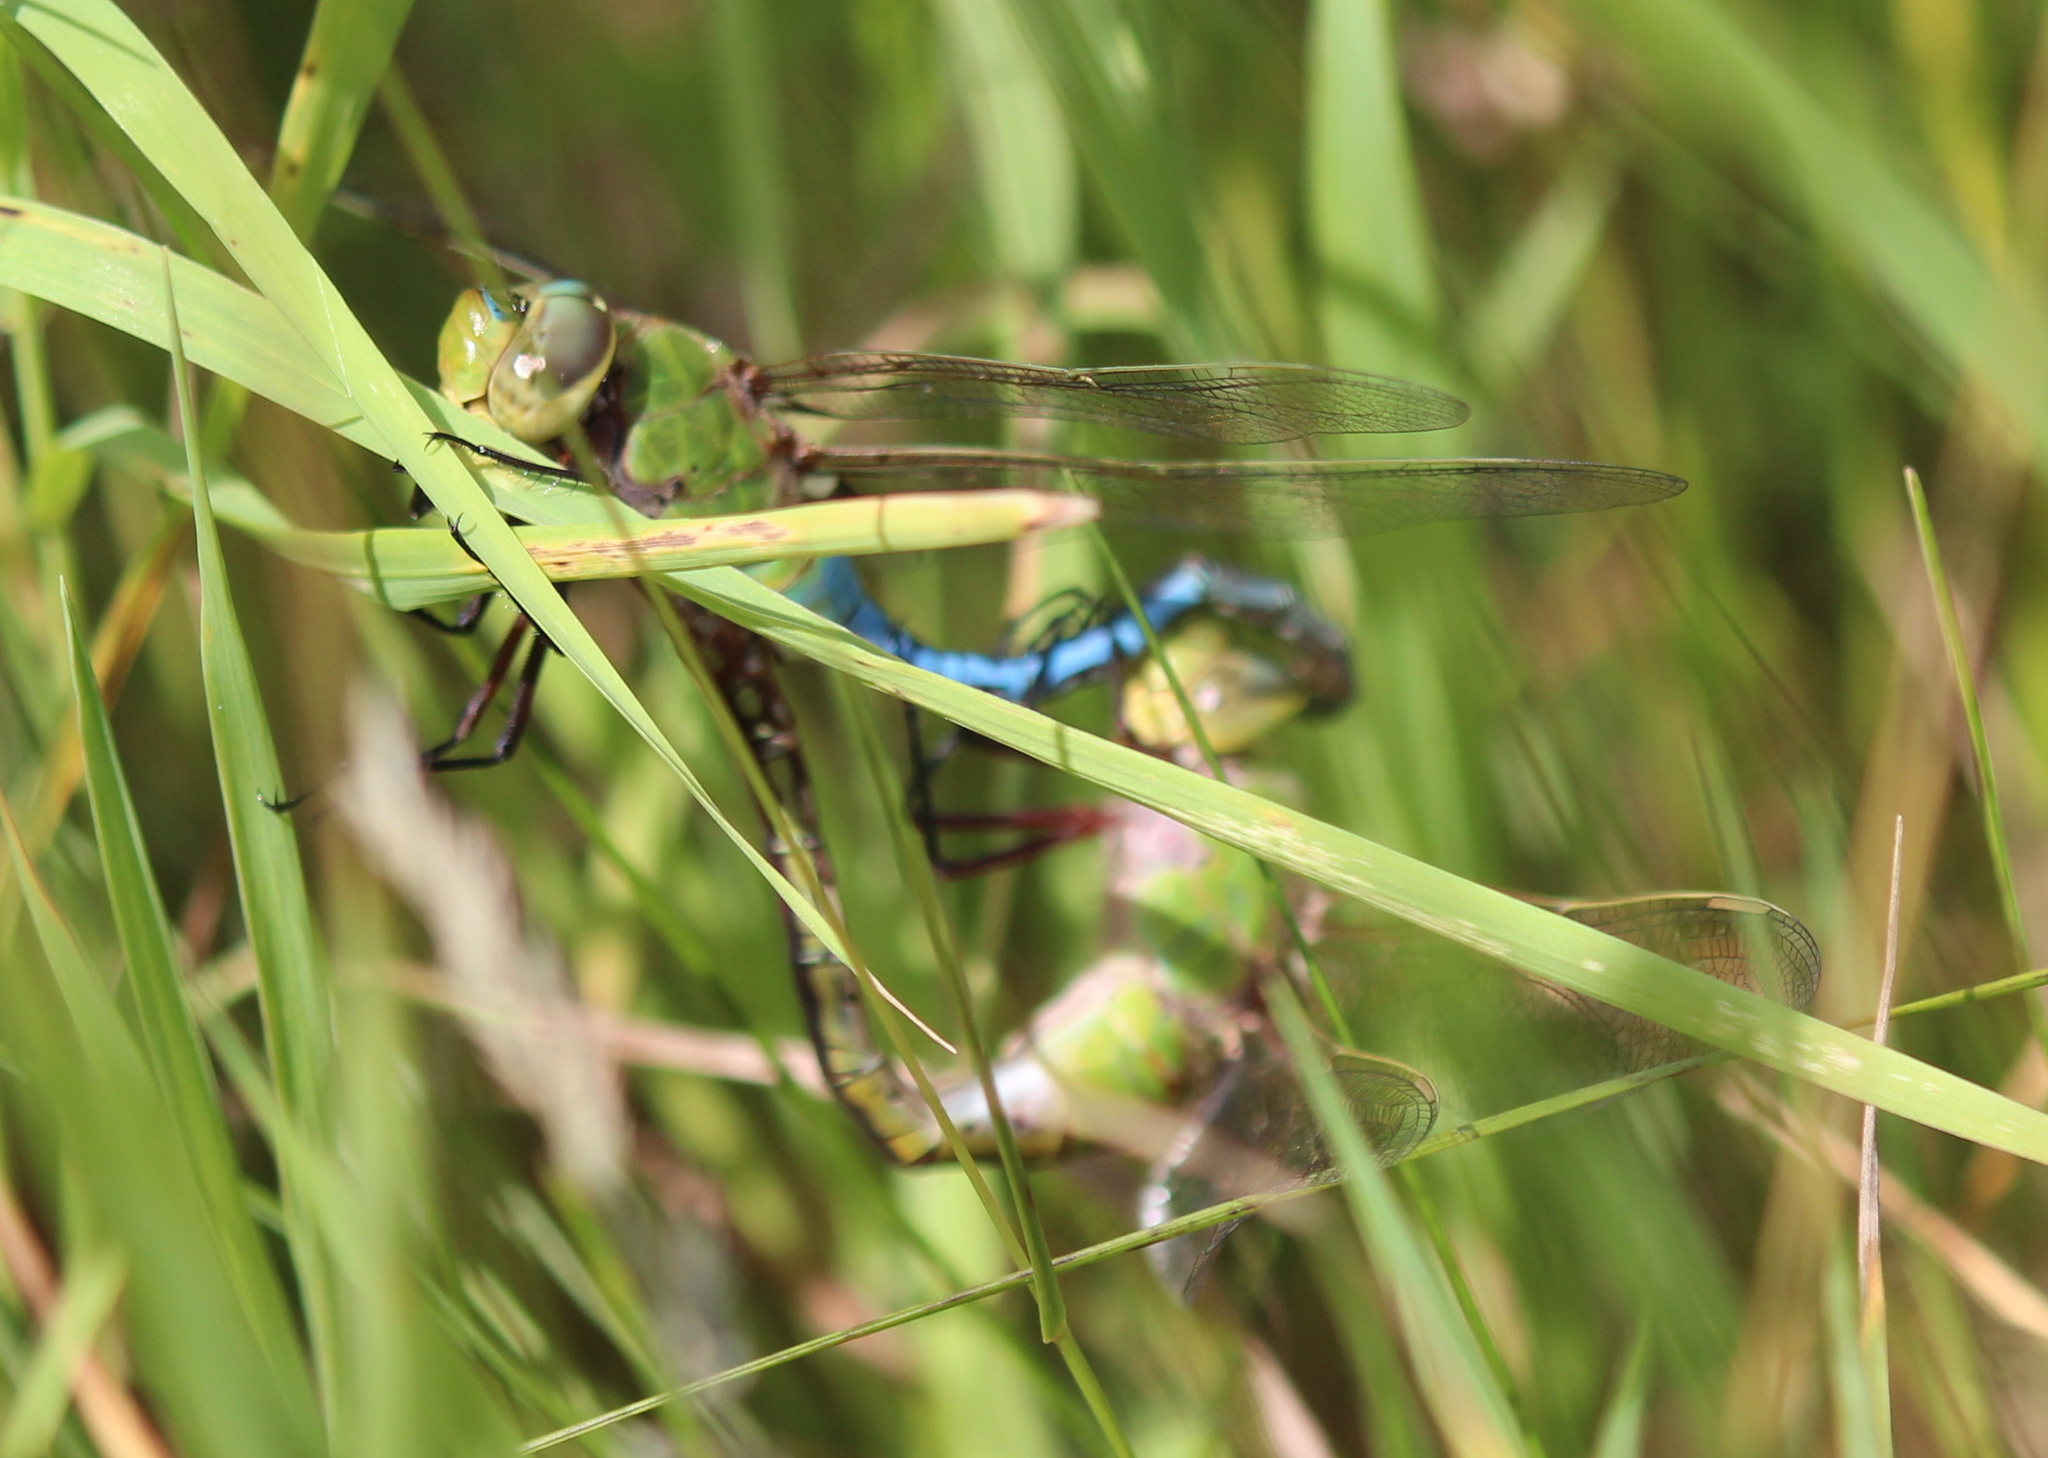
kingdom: Animalia
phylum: Arthropoda
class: Insecta
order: Odonata
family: Aeshnidae
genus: Anax
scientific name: Anax junius
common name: Common green darner
